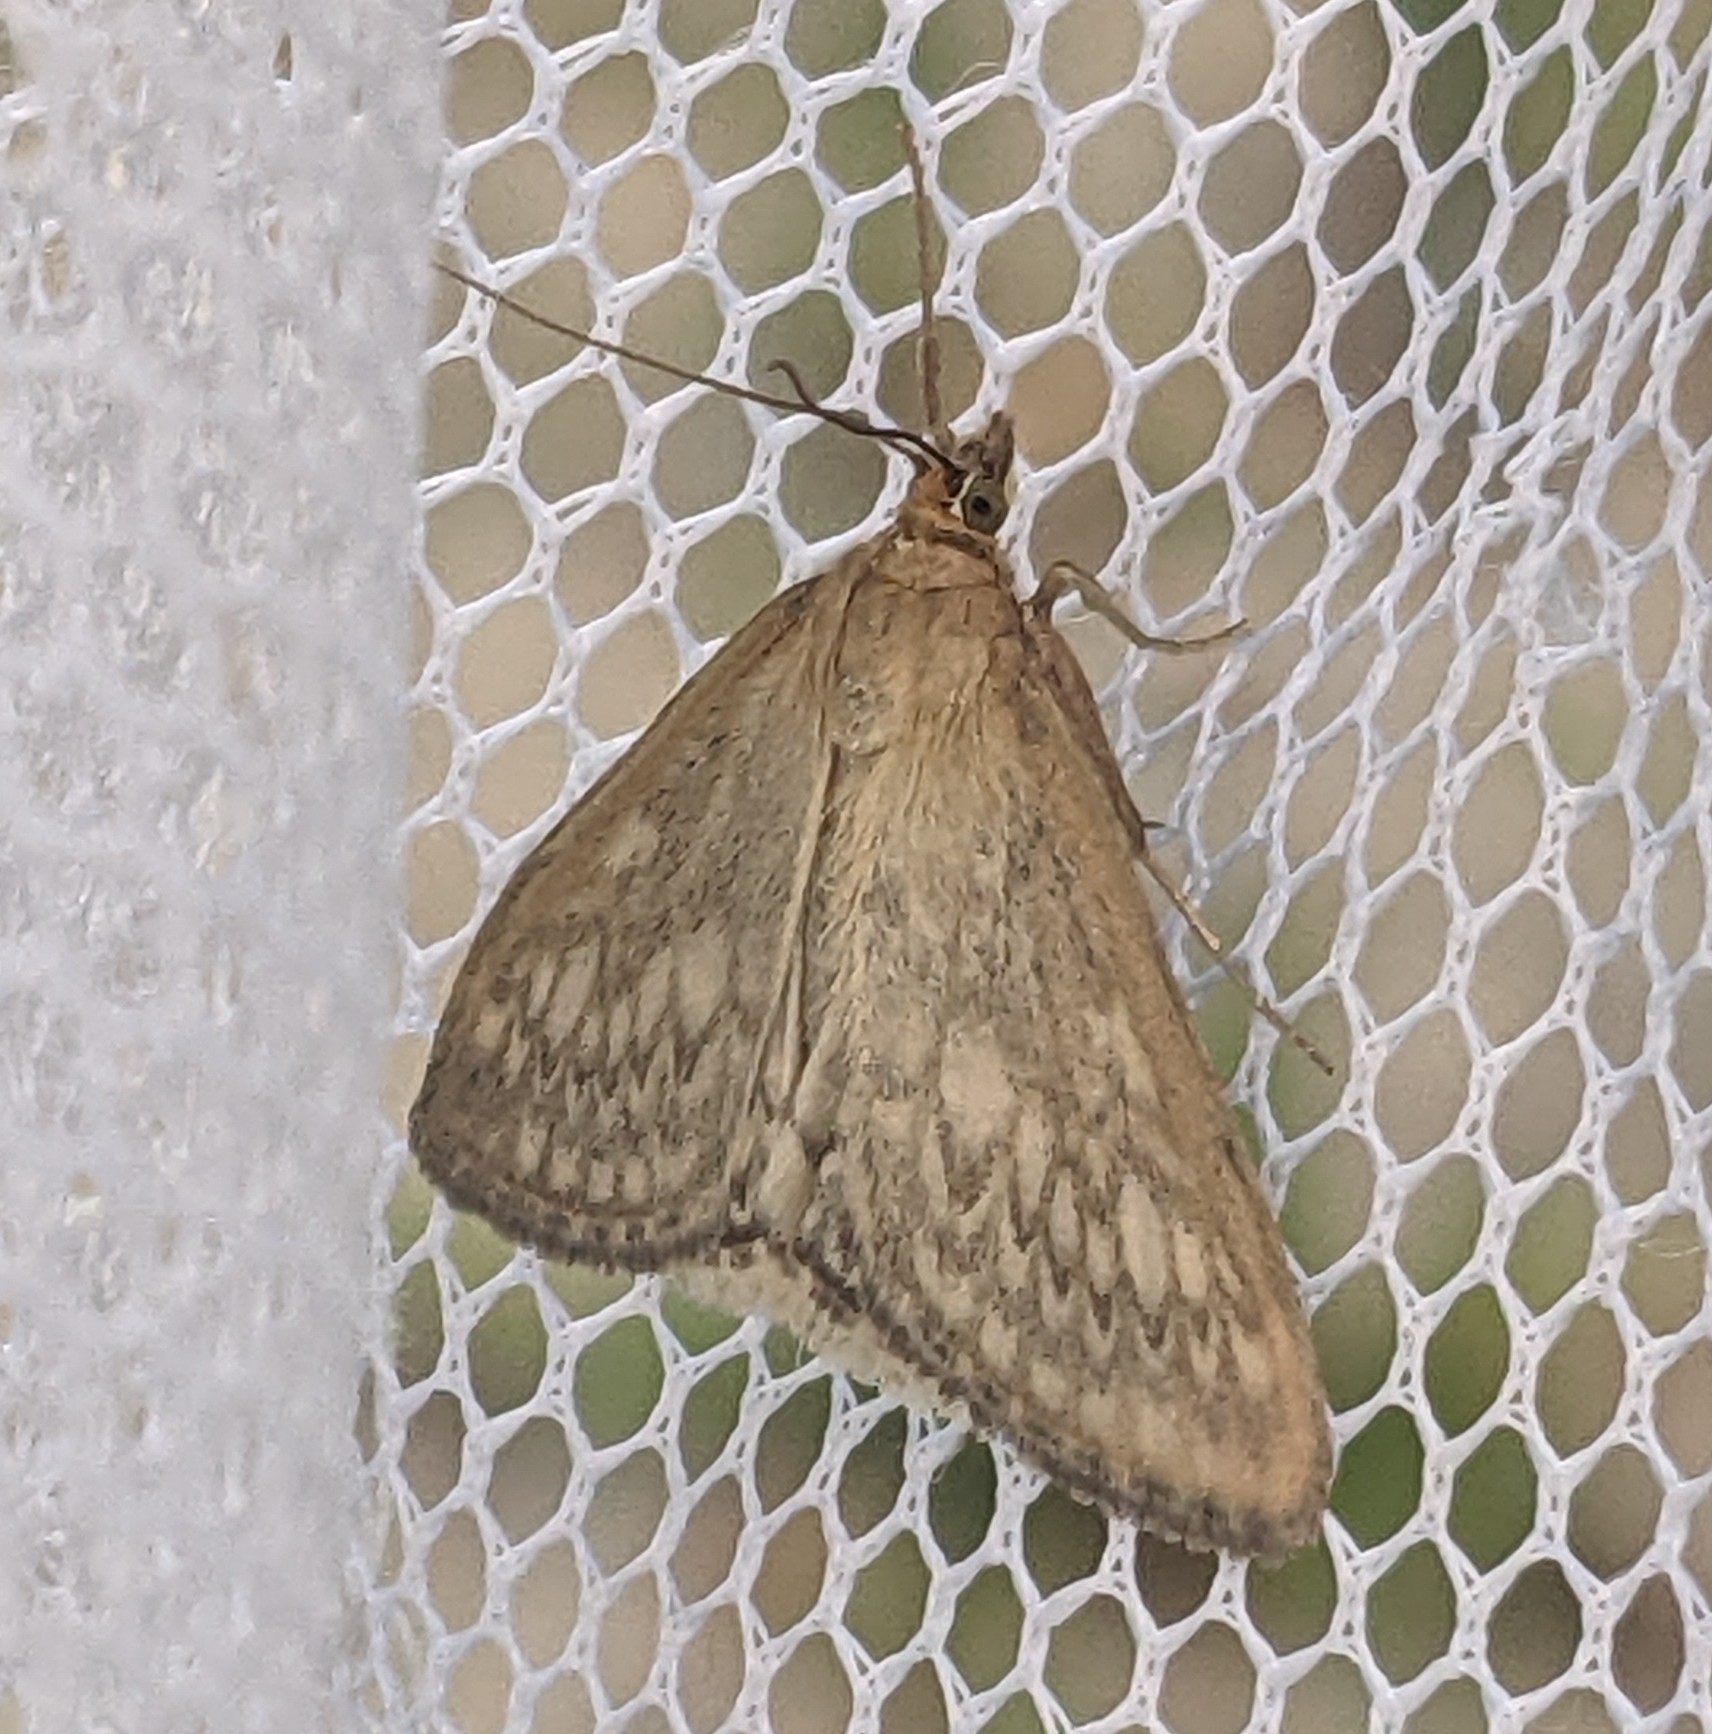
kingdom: Animalia
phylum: Arthropoda
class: Insecta
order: Lepidoptera
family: Crambidae
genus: Sitochroa
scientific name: Sitochroa chortalis
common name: Dimorphic sitochroa moth
